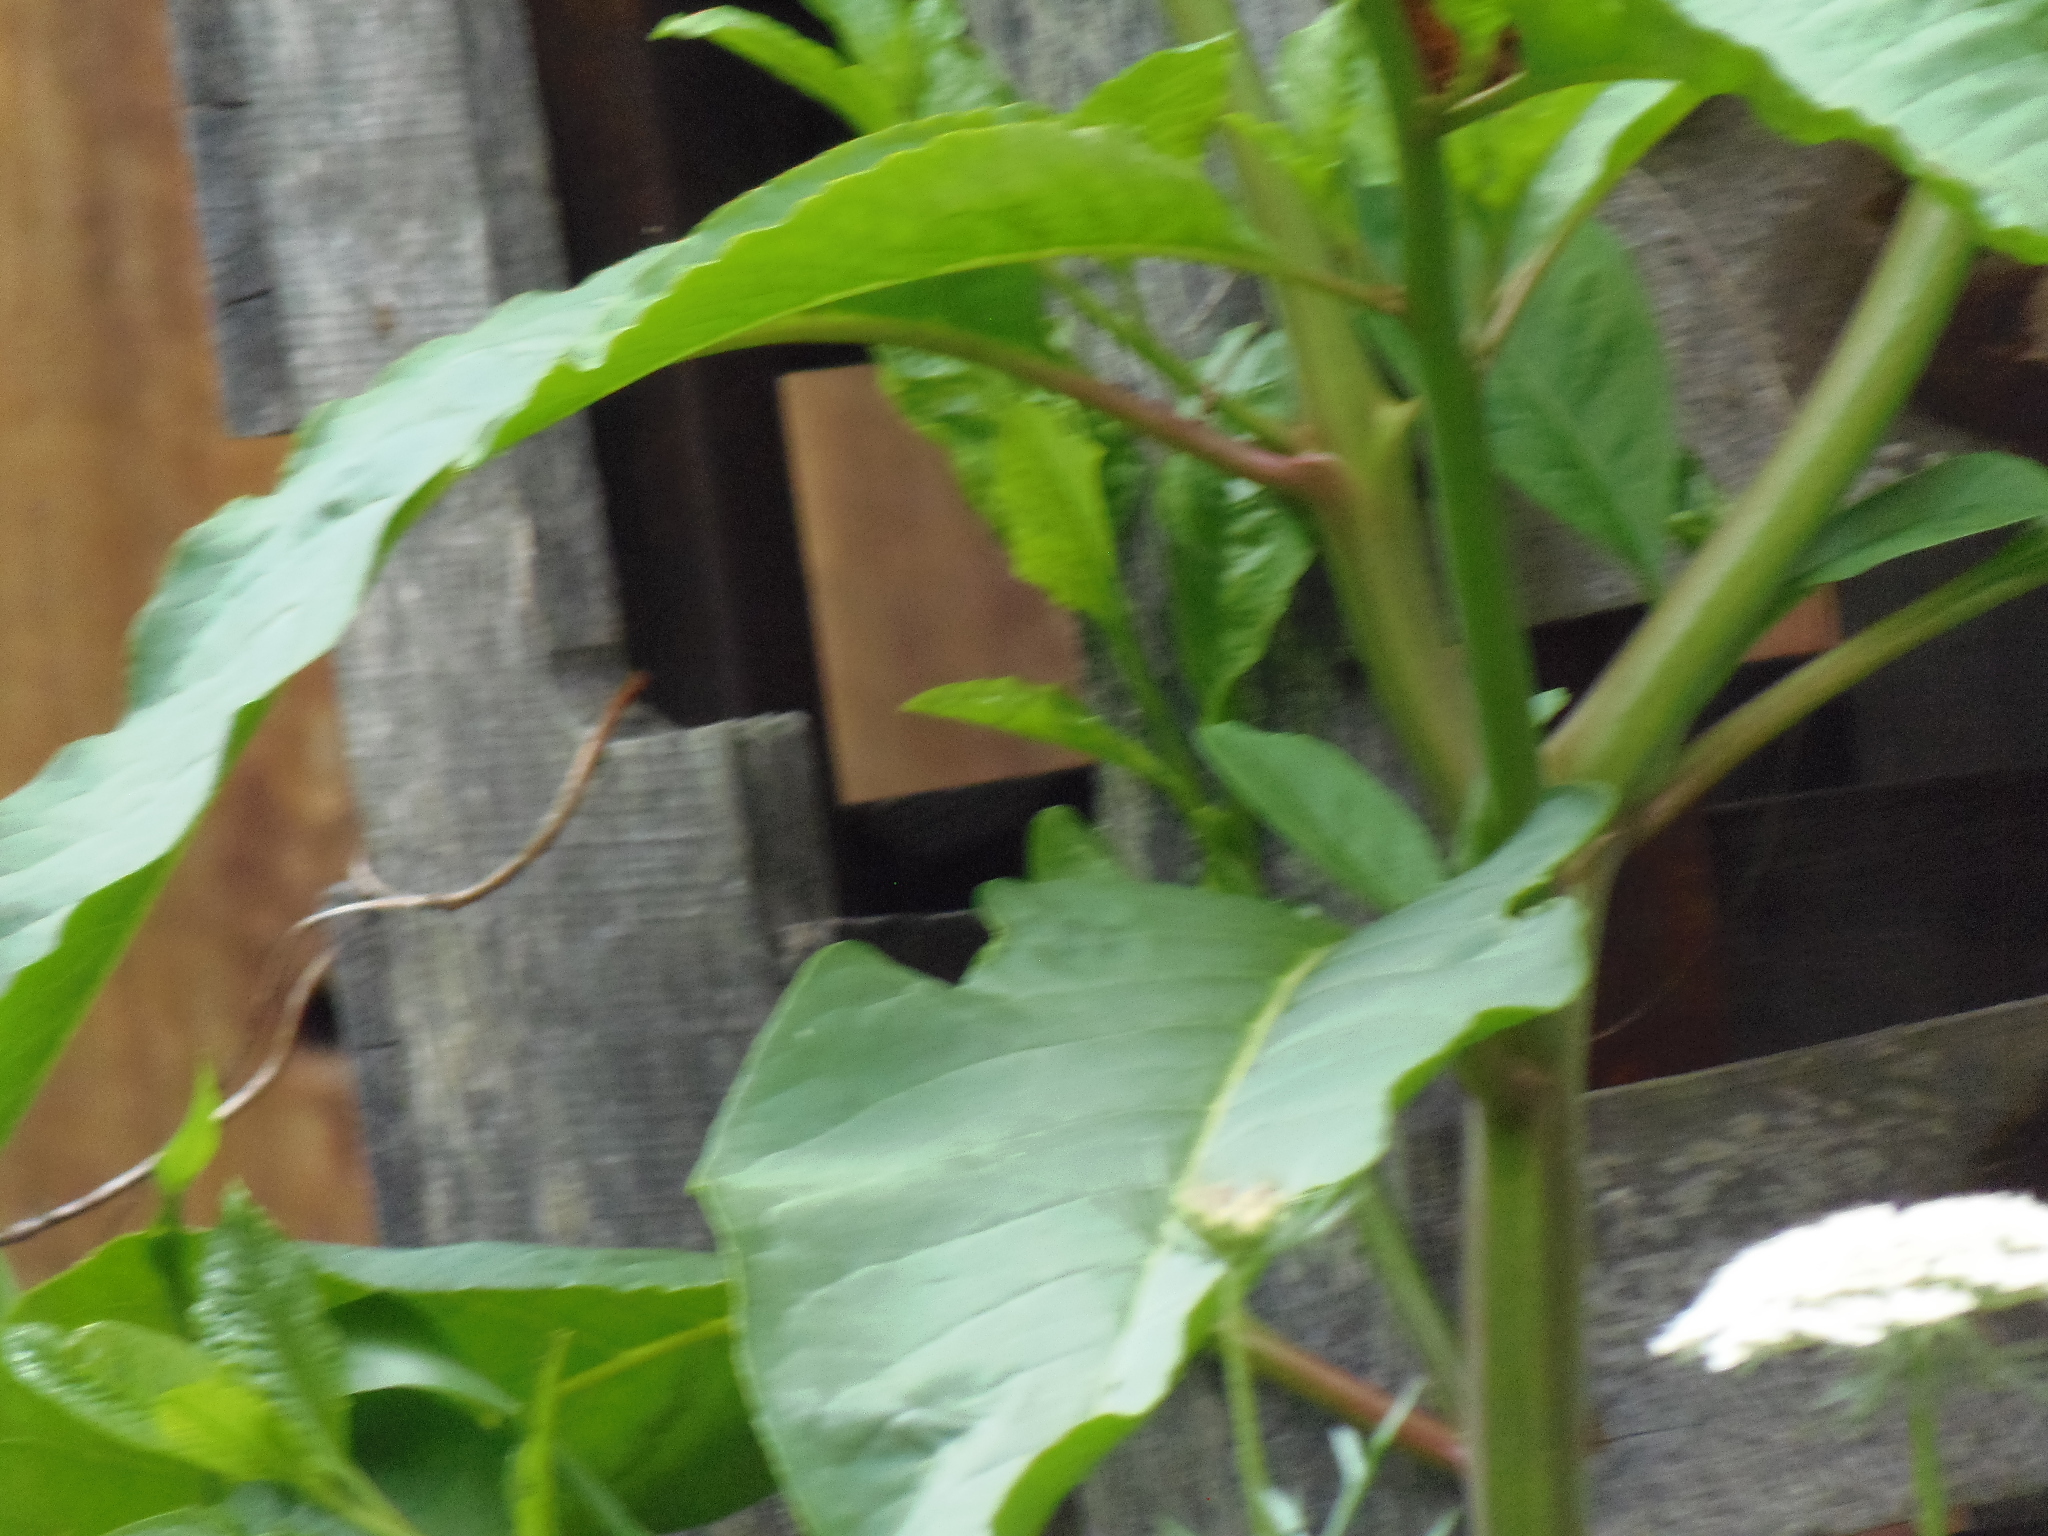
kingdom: Plantae
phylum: Tracheophyta
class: Magnoliopsida
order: Caryophyllales
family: Phytolaccaceae
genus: Phytolacca
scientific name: Phytolacca americana
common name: American pokeweed
